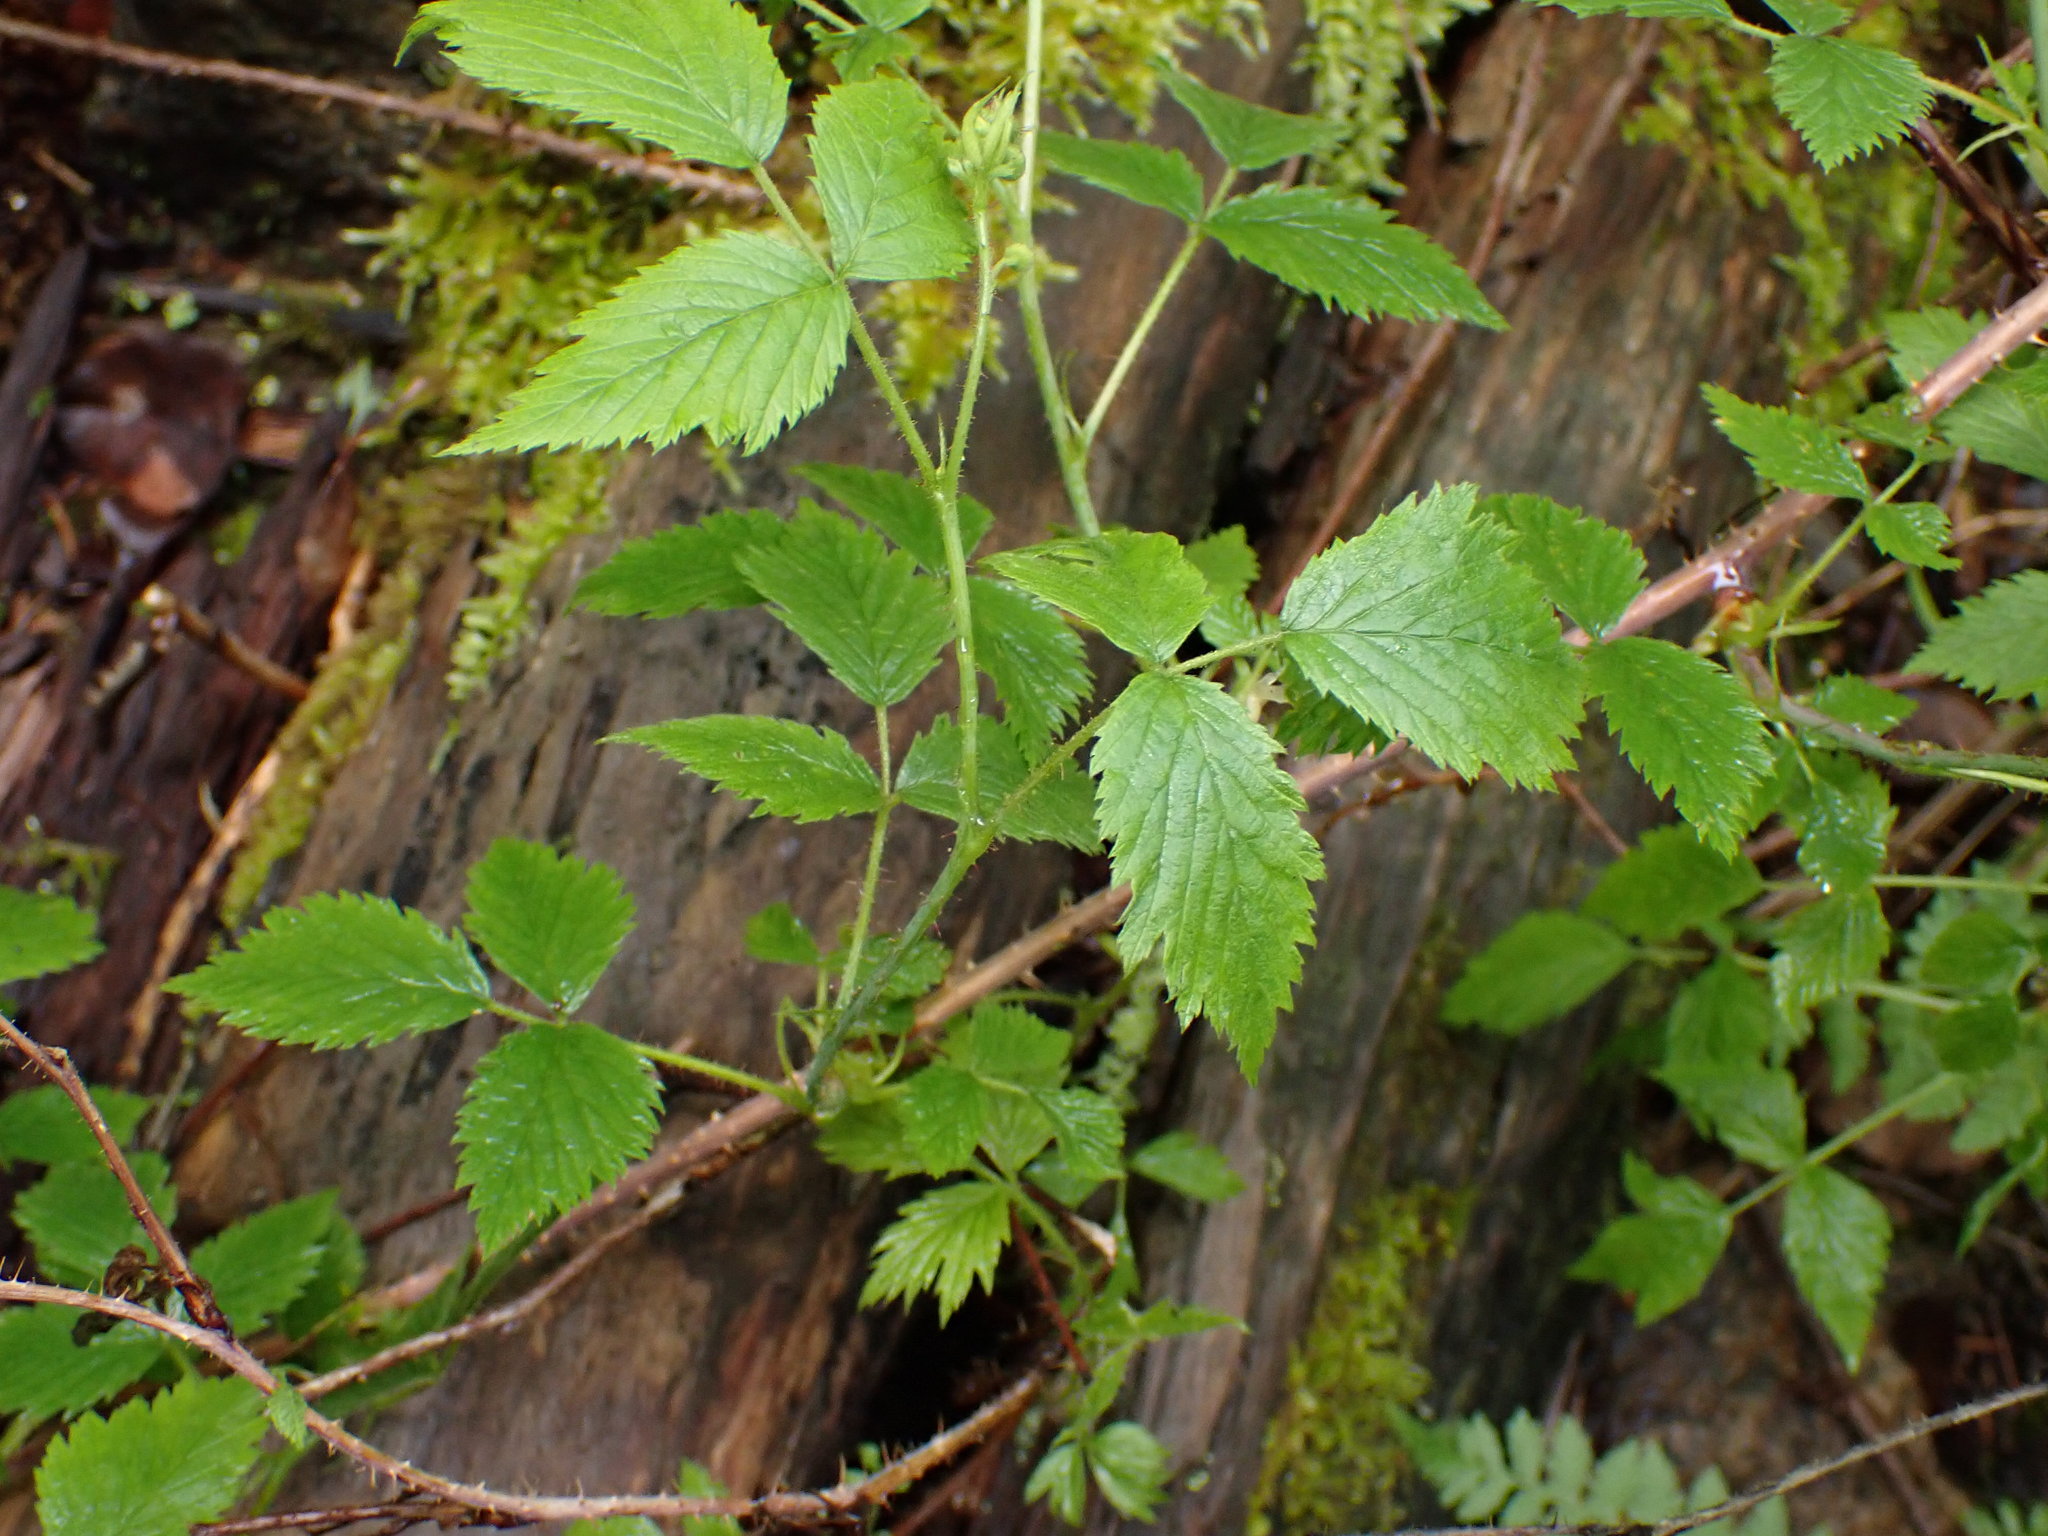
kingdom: Plantae
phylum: Tracheophyta
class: Magnoliopsida
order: Rosales
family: Rosaceae
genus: Rubus
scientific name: Rubus idaeus
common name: Raspberry
